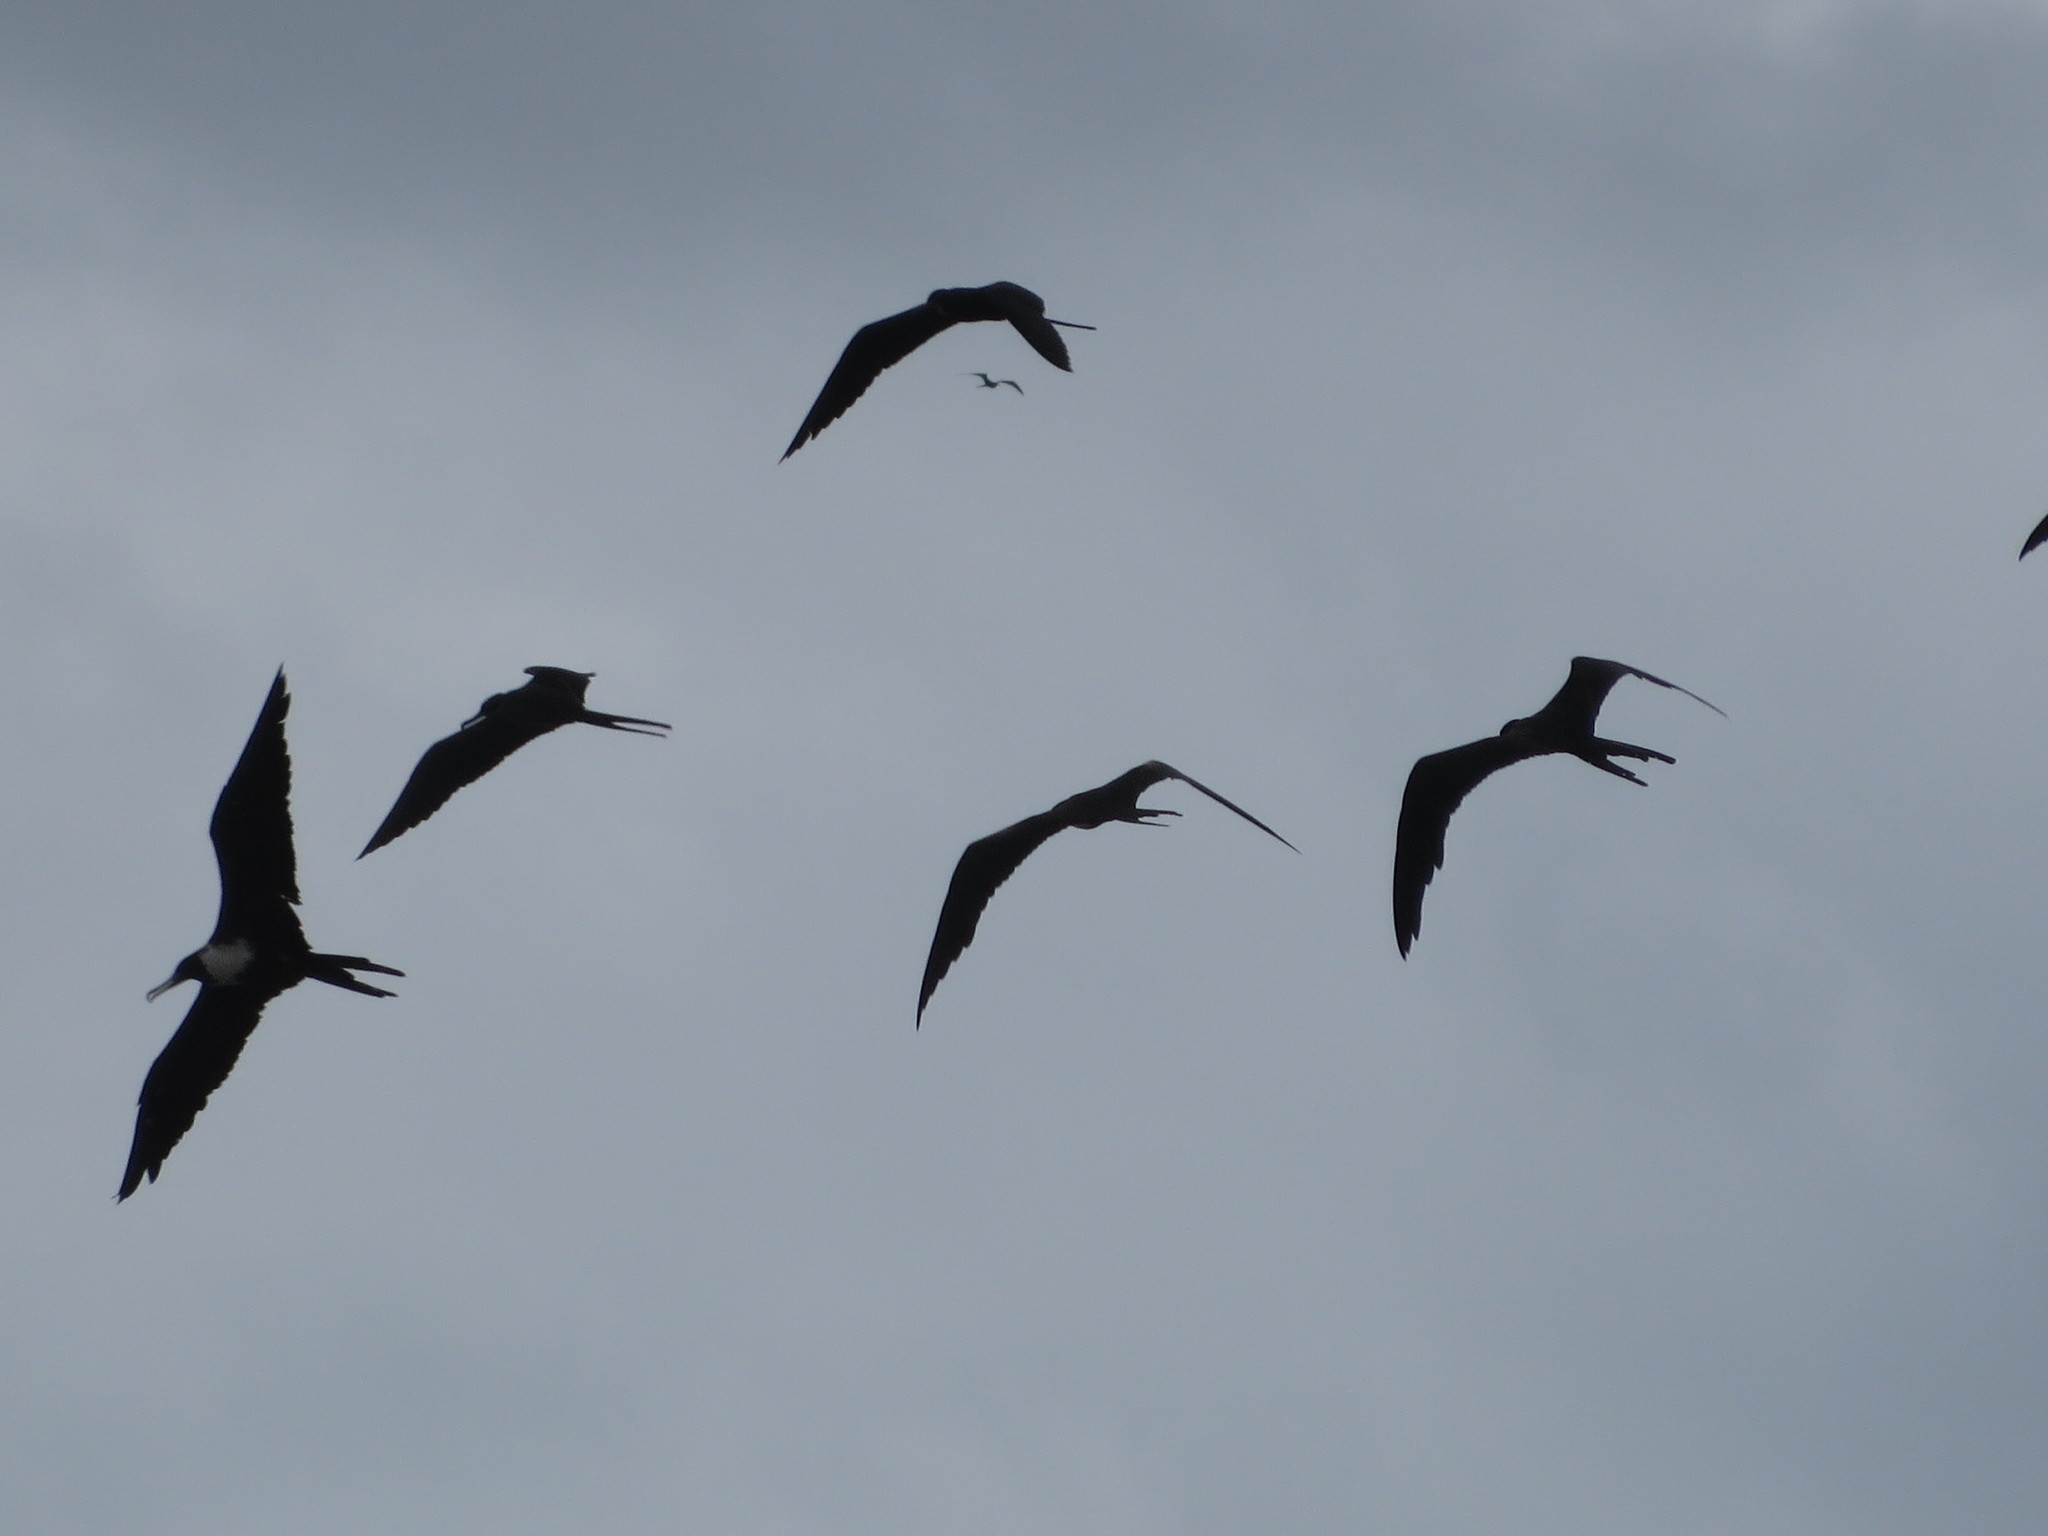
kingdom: Animalia
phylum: Chordata
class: Aves
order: Suliformes
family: Fregatidae
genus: Fregata
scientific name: Fregata magnificens
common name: Magnificent frigatebird
